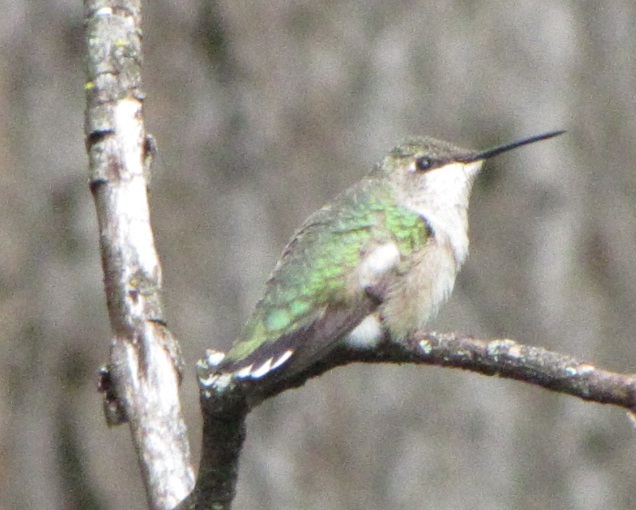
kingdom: Animalia
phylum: Chordata
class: Aves
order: Apodiformes
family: Trochilidae
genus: Archilochus
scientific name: Archilochus colubris
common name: Ruby-throated hummingbird
